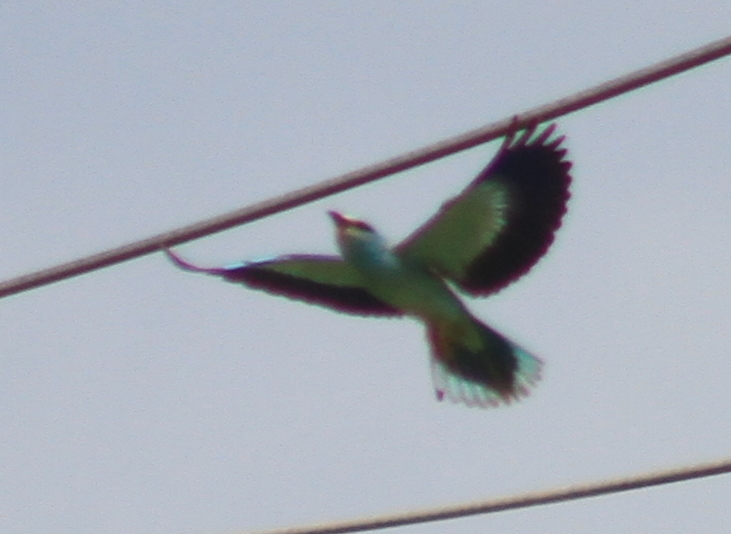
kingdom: Animalia
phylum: Chordata
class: Aves
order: Coraciiformes
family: Coraciidae
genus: Coracias
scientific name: Coracias garrulus
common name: European roller
